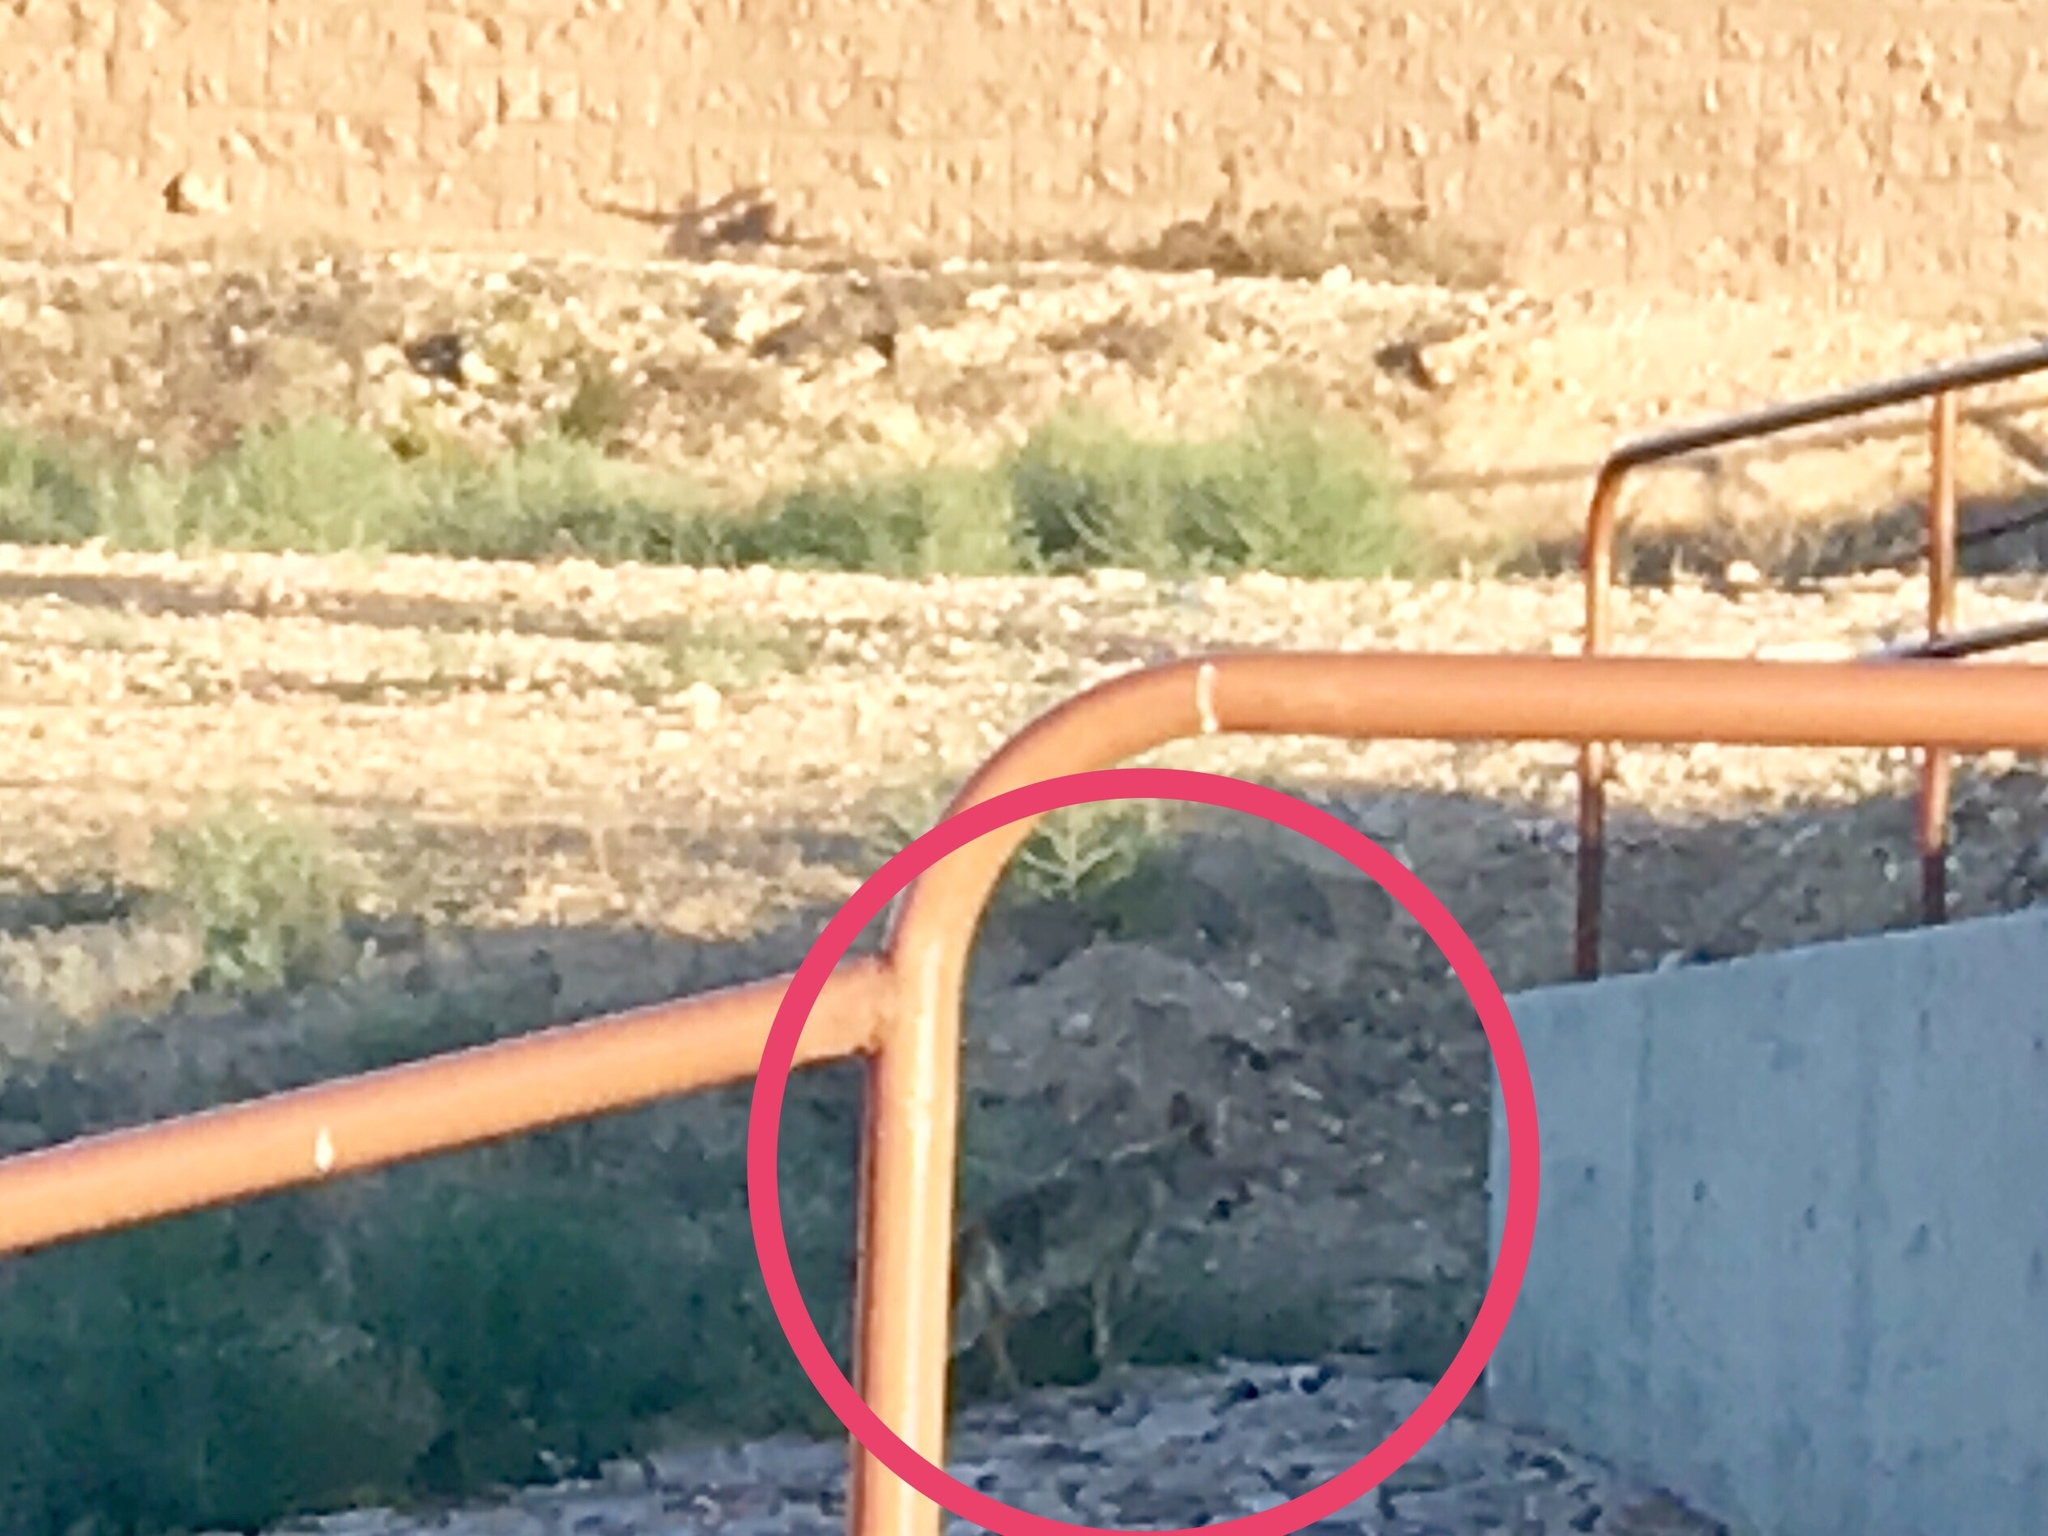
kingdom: Animalia
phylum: Chordata
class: Mammalia
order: Carnivora
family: Canidae
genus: Canis
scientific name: Canis latrans
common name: Coyote
